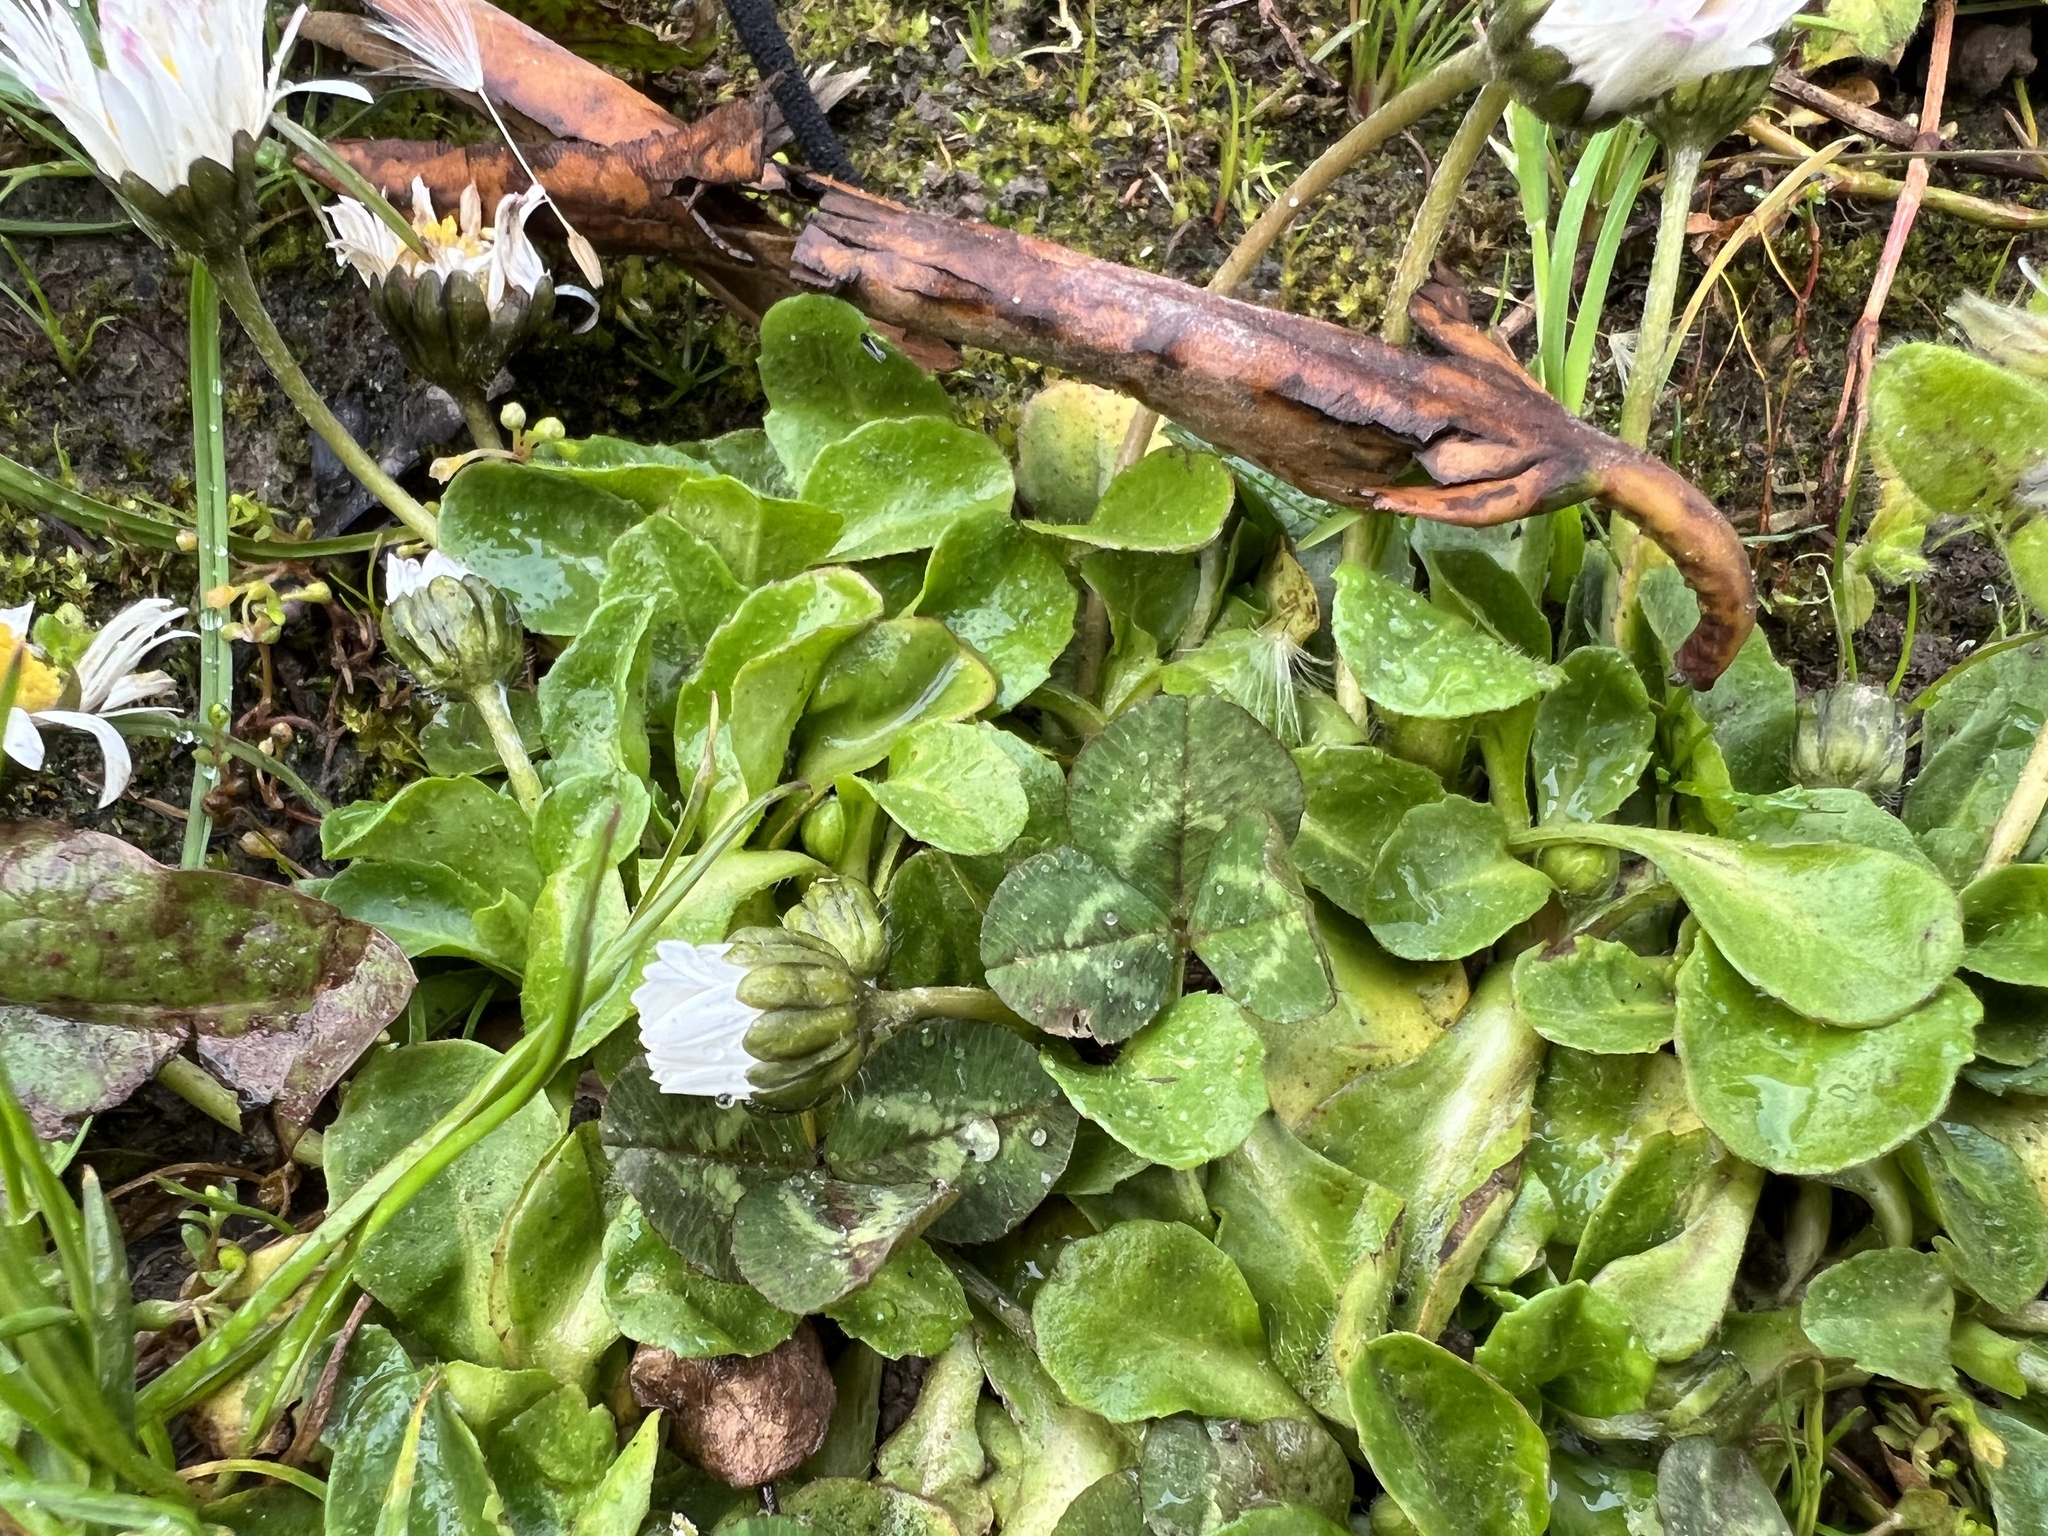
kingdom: Plantae
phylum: Tracheophyta
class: Magnoliopsida
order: Asterales
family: Asteraceae
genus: Bellis
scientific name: Bellis perennis
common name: Lawndaisy
